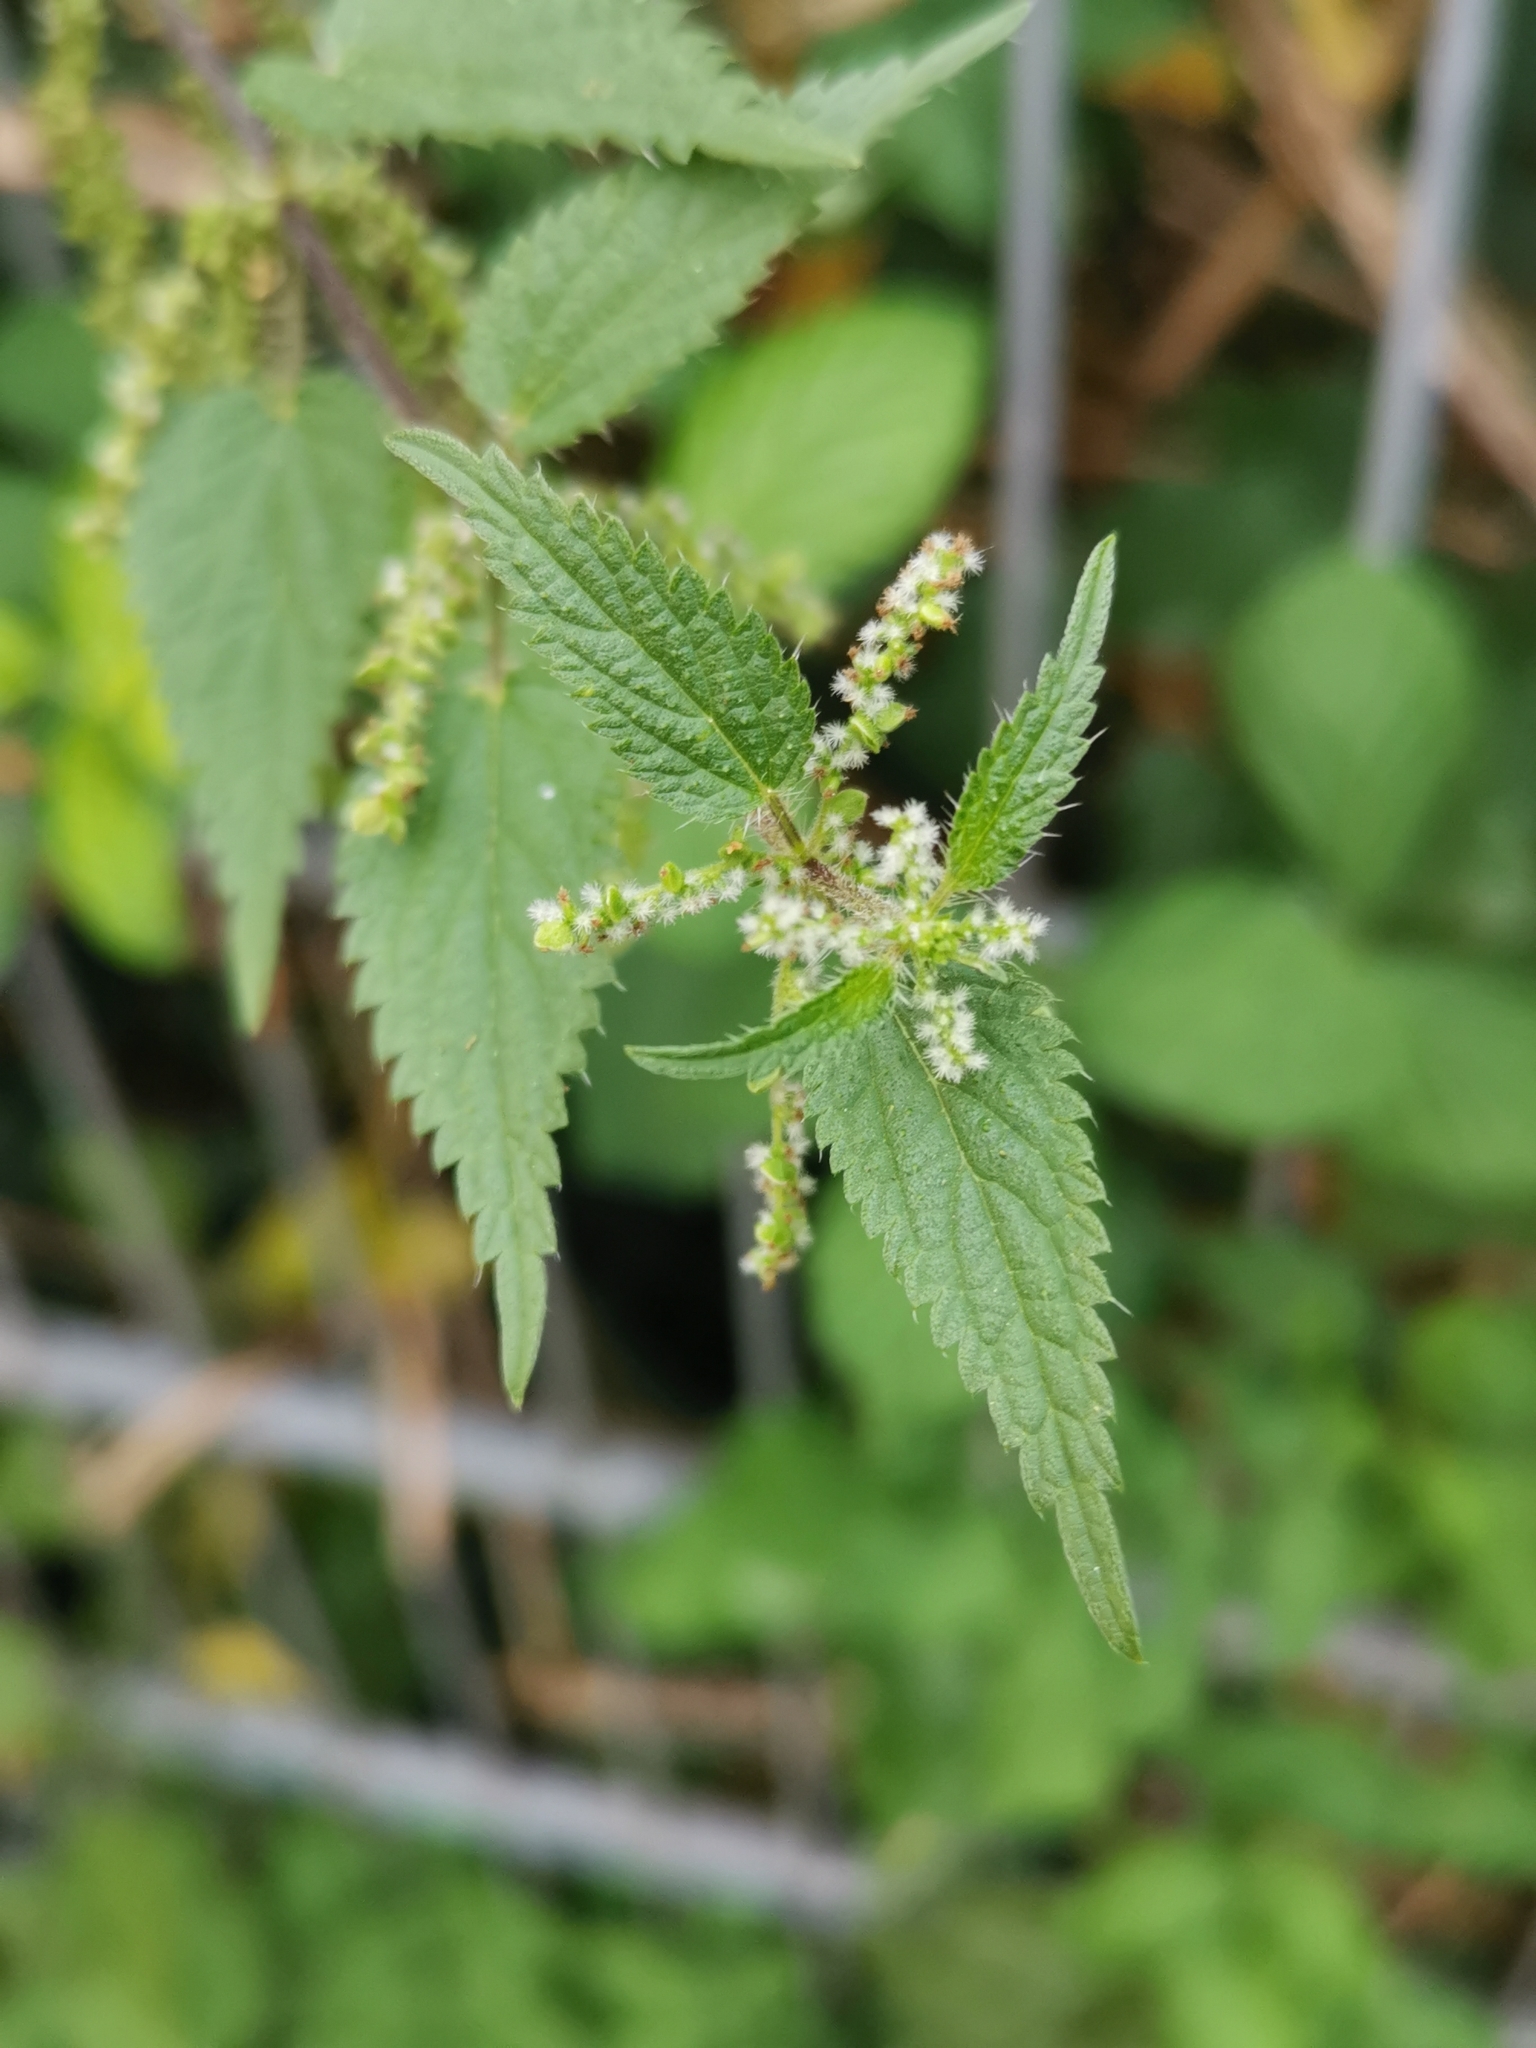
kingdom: Plantae
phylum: Tracheophyta
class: Magnoliopsida
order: Rosales
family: Urticaceae
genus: Urtica
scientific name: Urtica dioica
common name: Common nettle
